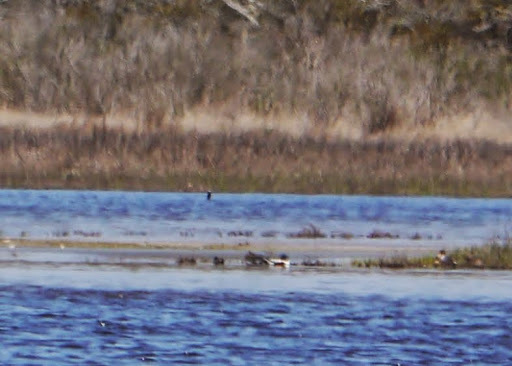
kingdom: Animalia
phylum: Chordata
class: Aves
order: Anseriformes
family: Anatidae
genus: Spatula
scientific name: Spatula clypeata
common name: Northern shoveler
